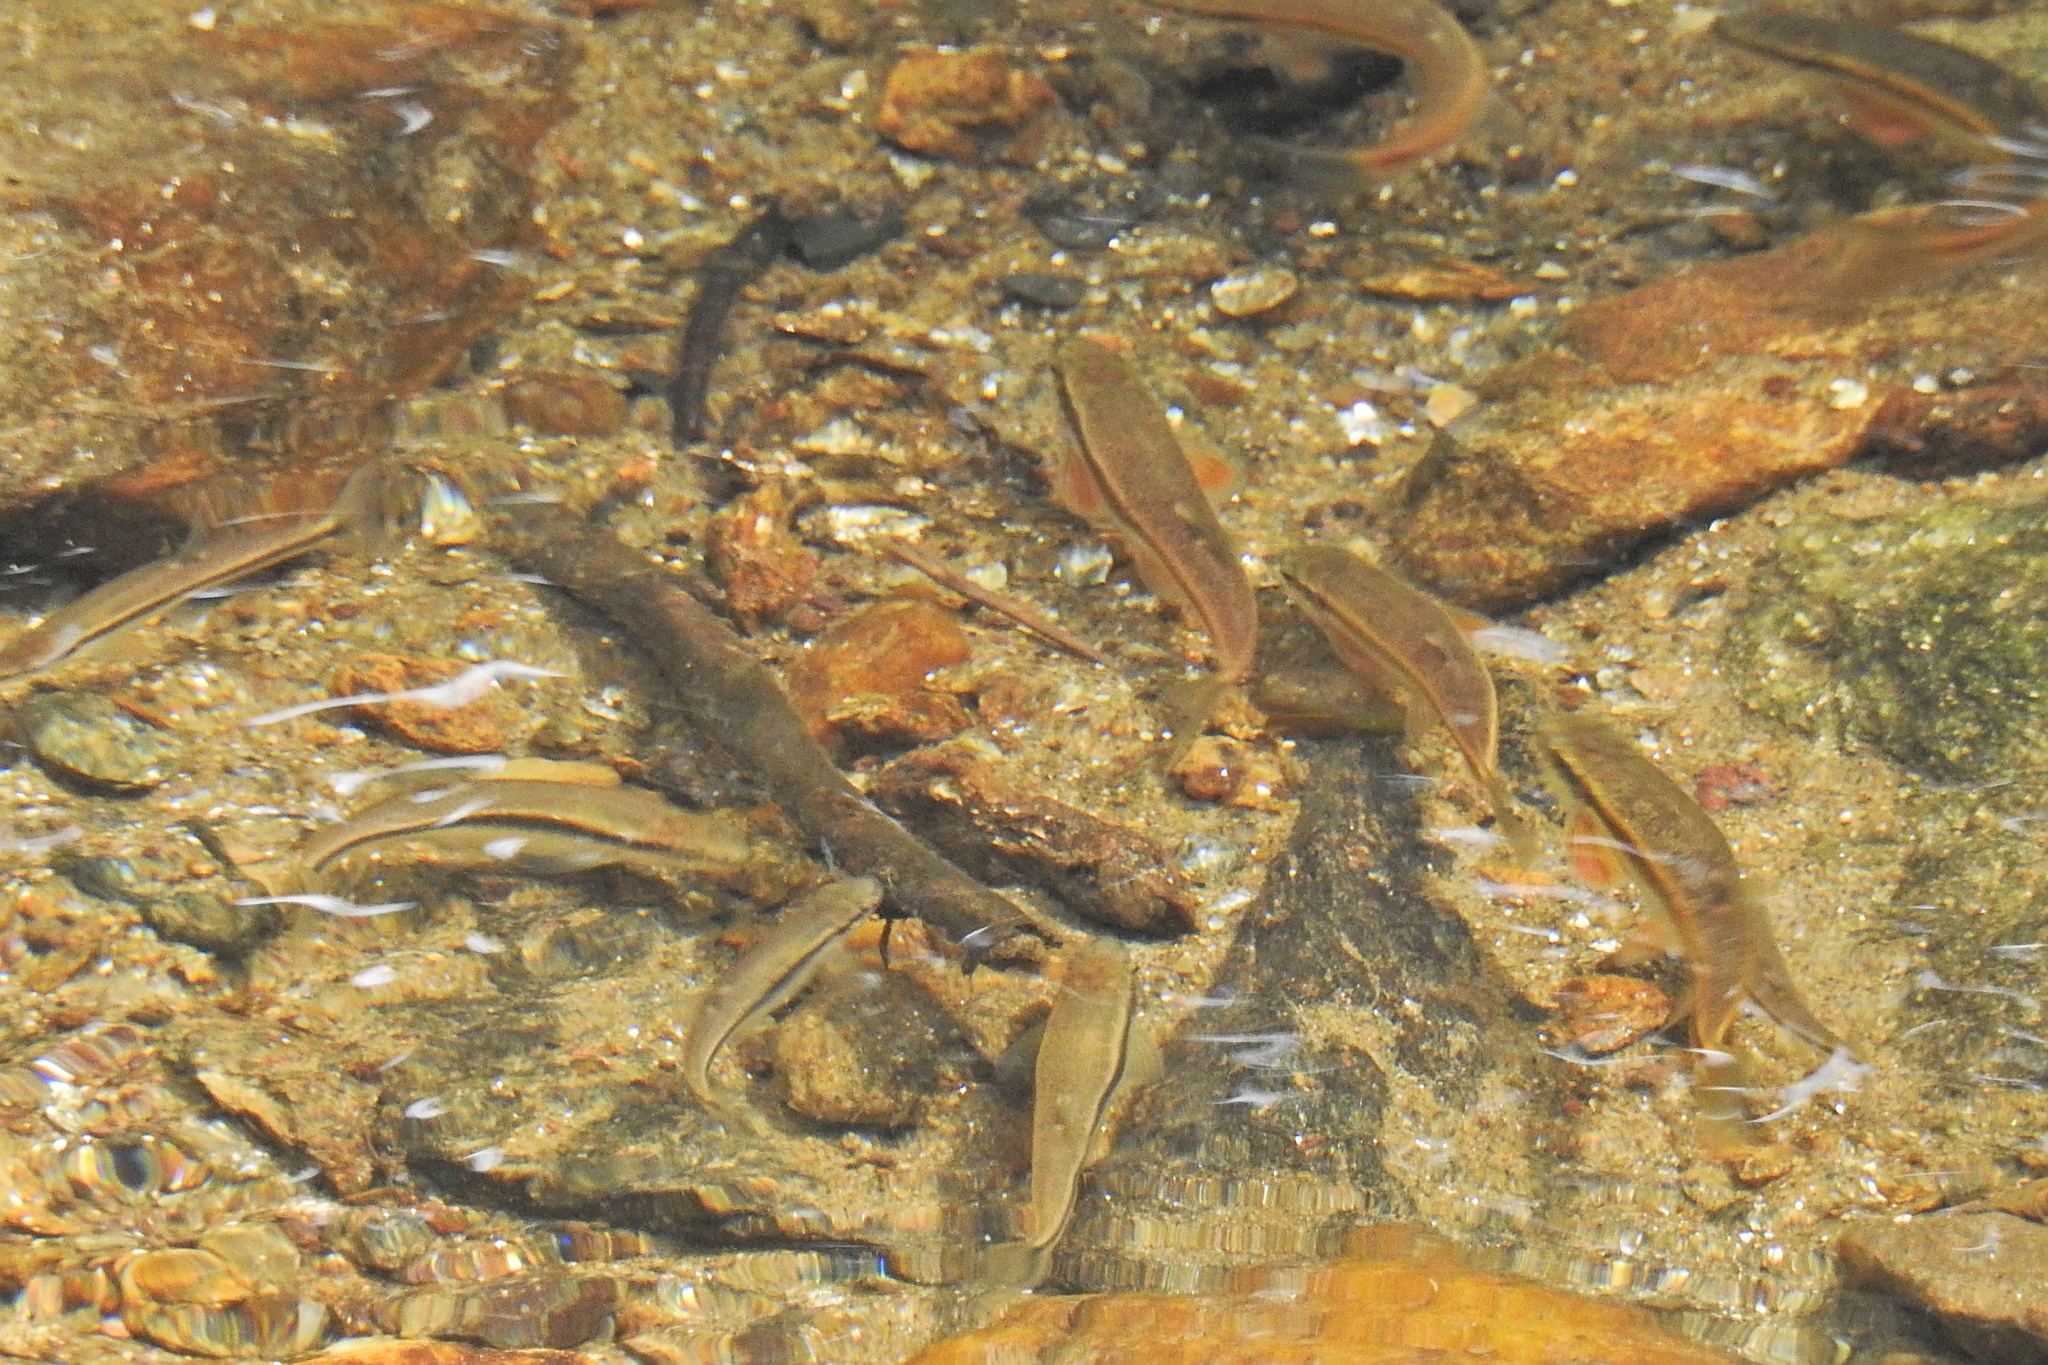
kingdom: Animalia
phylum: Chordata
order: Cypriniformes
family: Cyprinidae
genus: Rhinichthys
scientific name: Rhinichthys atratulus
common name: Eastern blacknose dace
